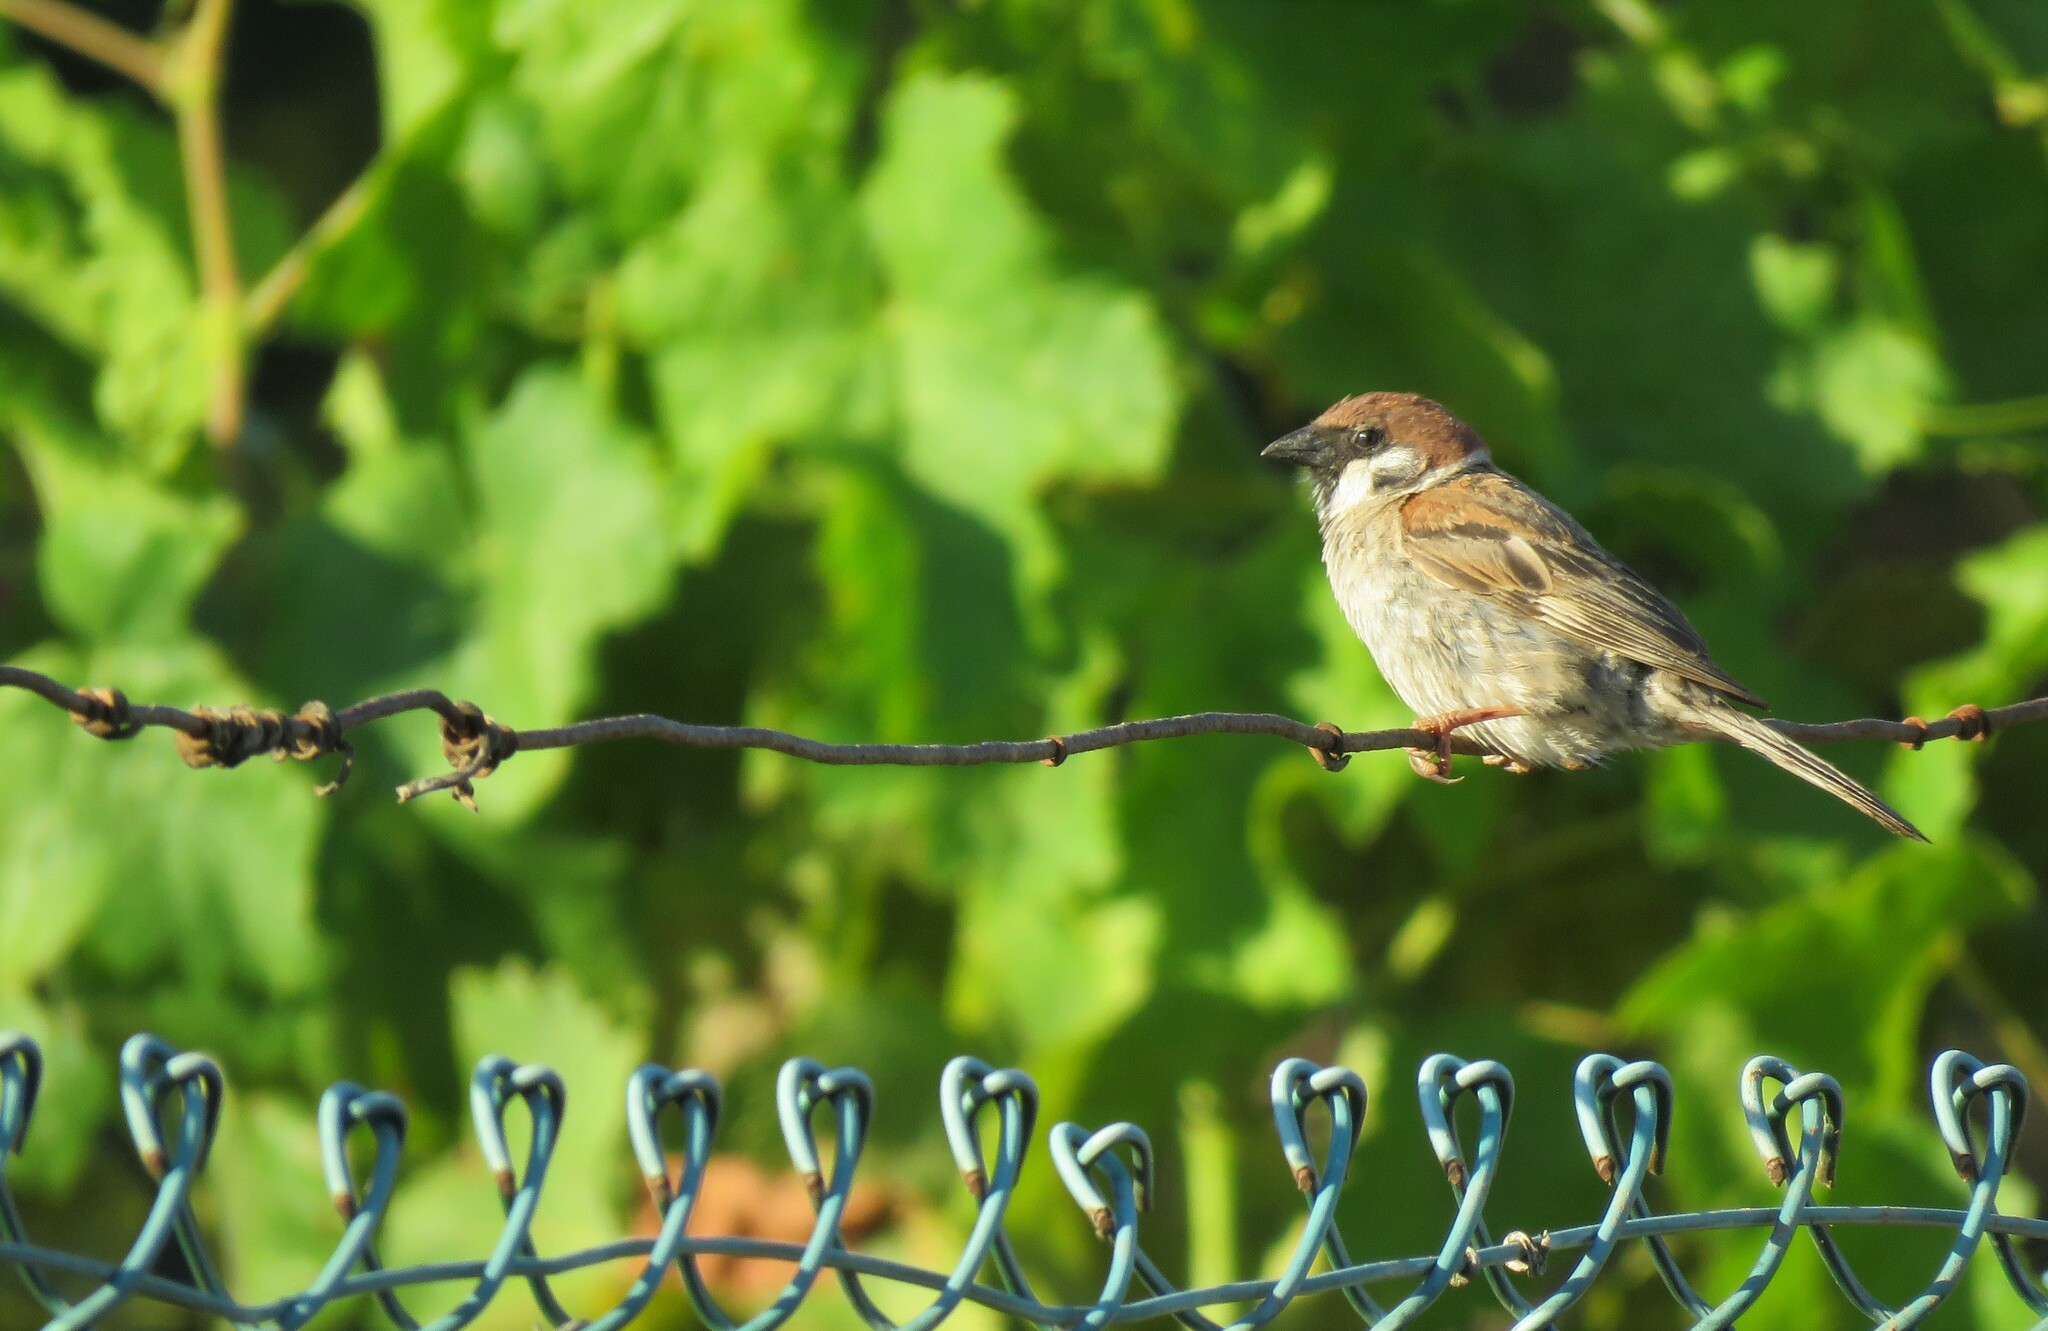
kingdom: Animalia
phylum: Chordata
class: Aves
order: Passeriformes
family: Passeridae
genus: Passer
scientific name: Passer montanus
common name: Eurasian tree sparrow
